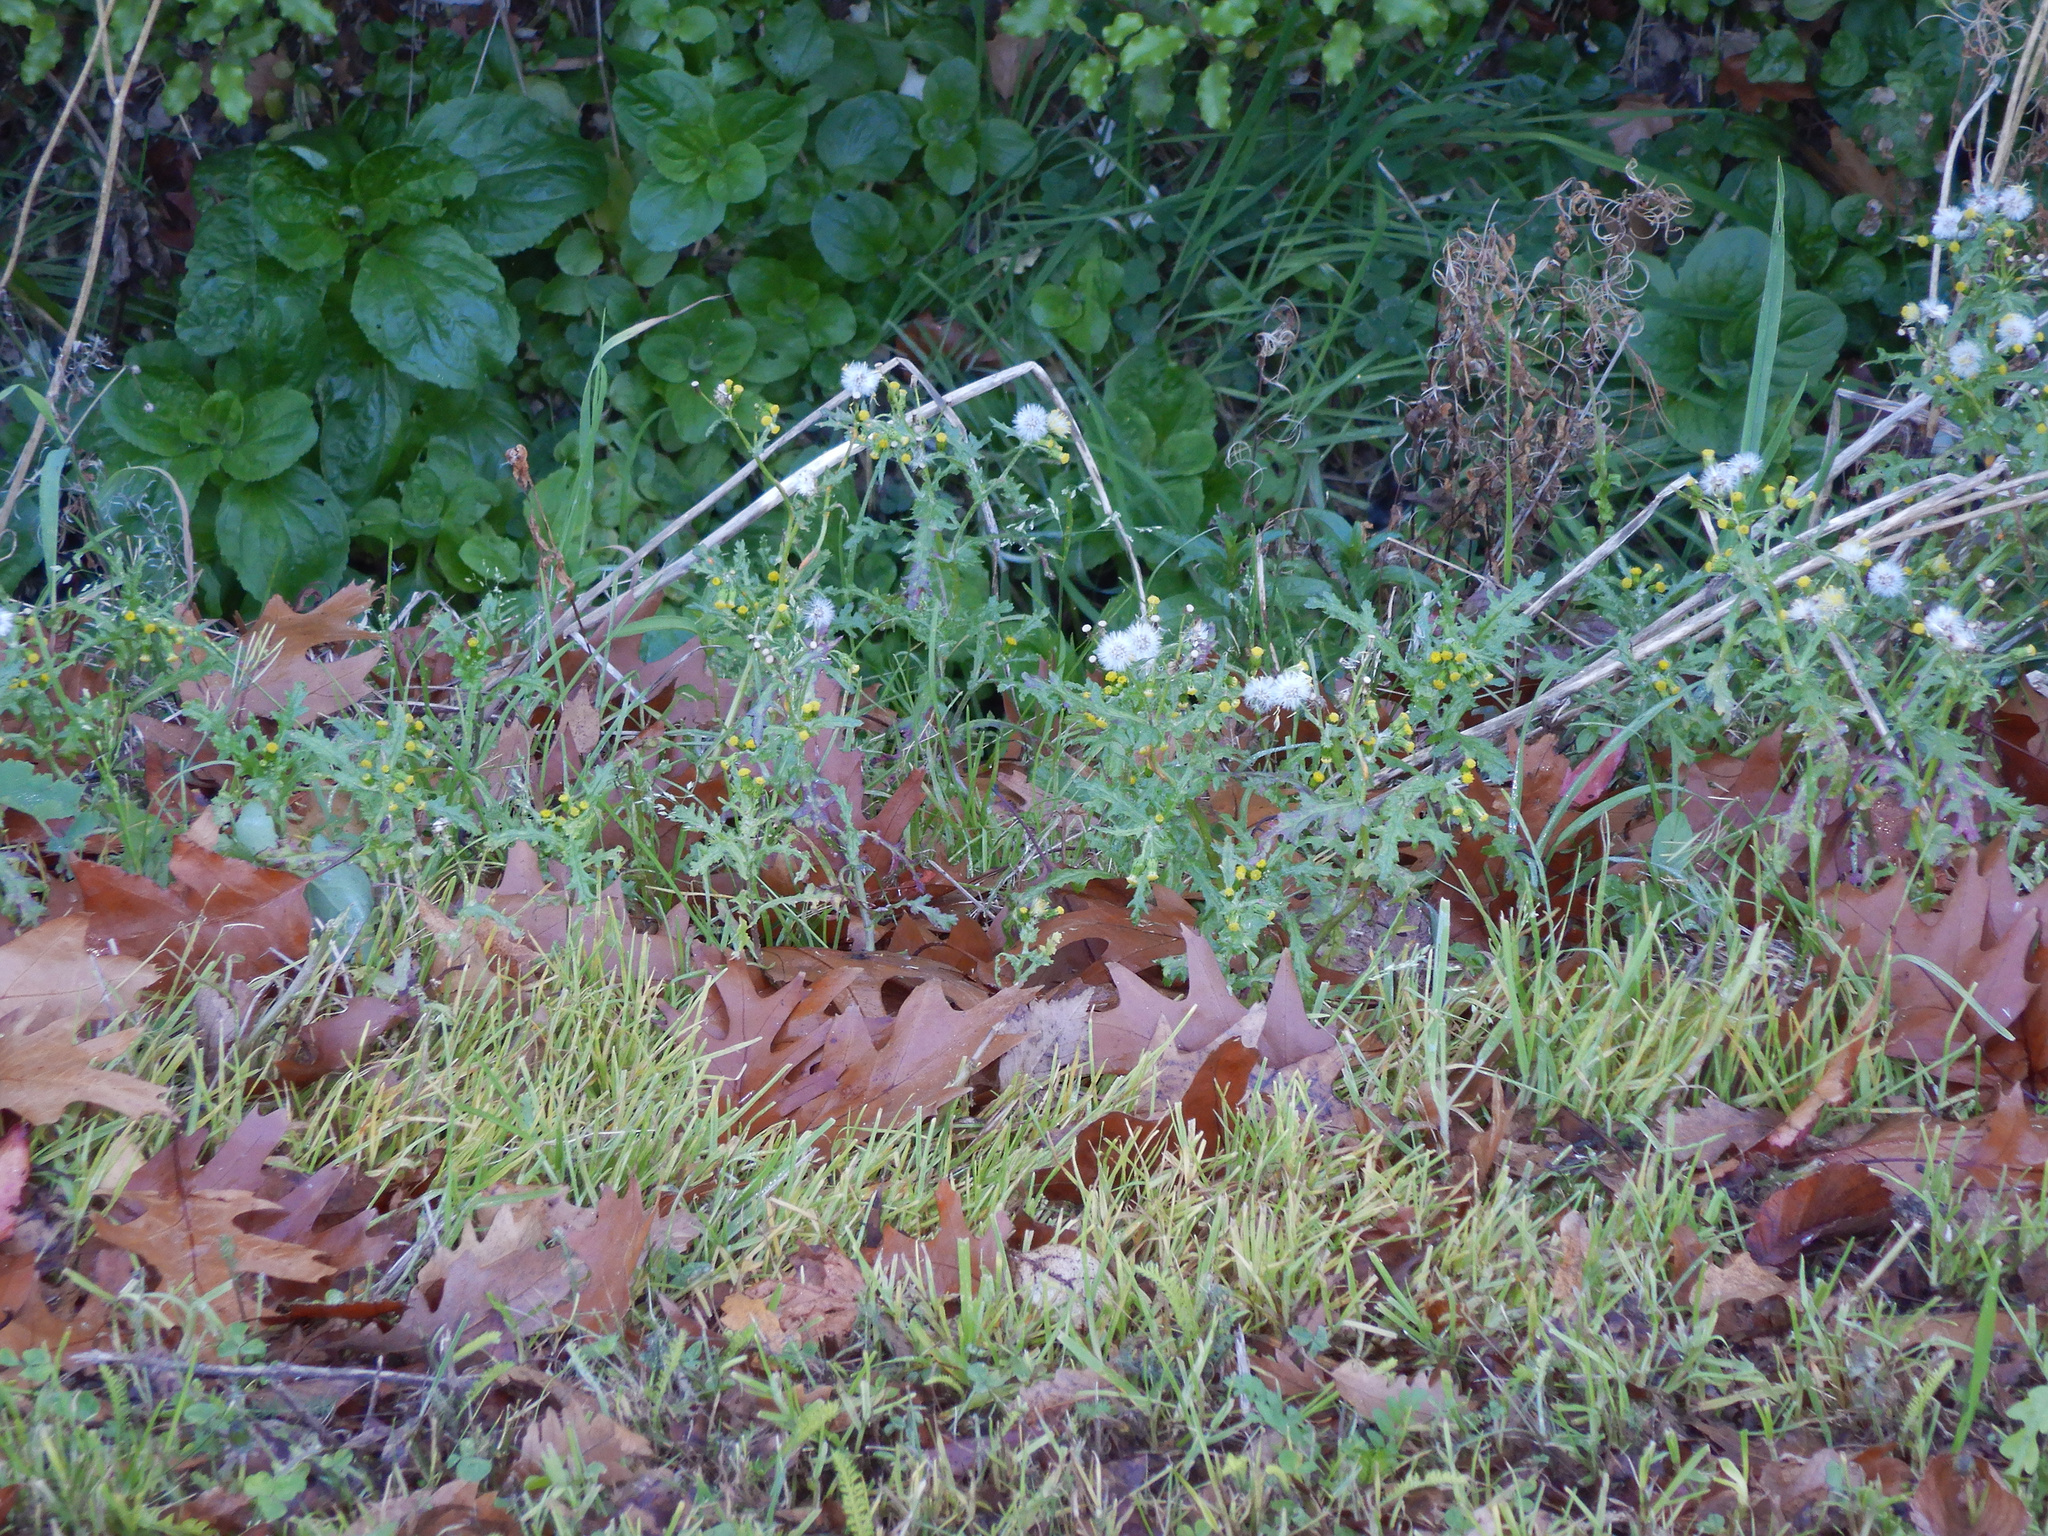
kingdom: Plantae
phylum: Tracheophyta
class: Magnoliopsida
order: Asterales
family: Asteraceae
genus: Senecio
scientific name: Senecio vulgaris
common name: Old-man-in-the-spring
